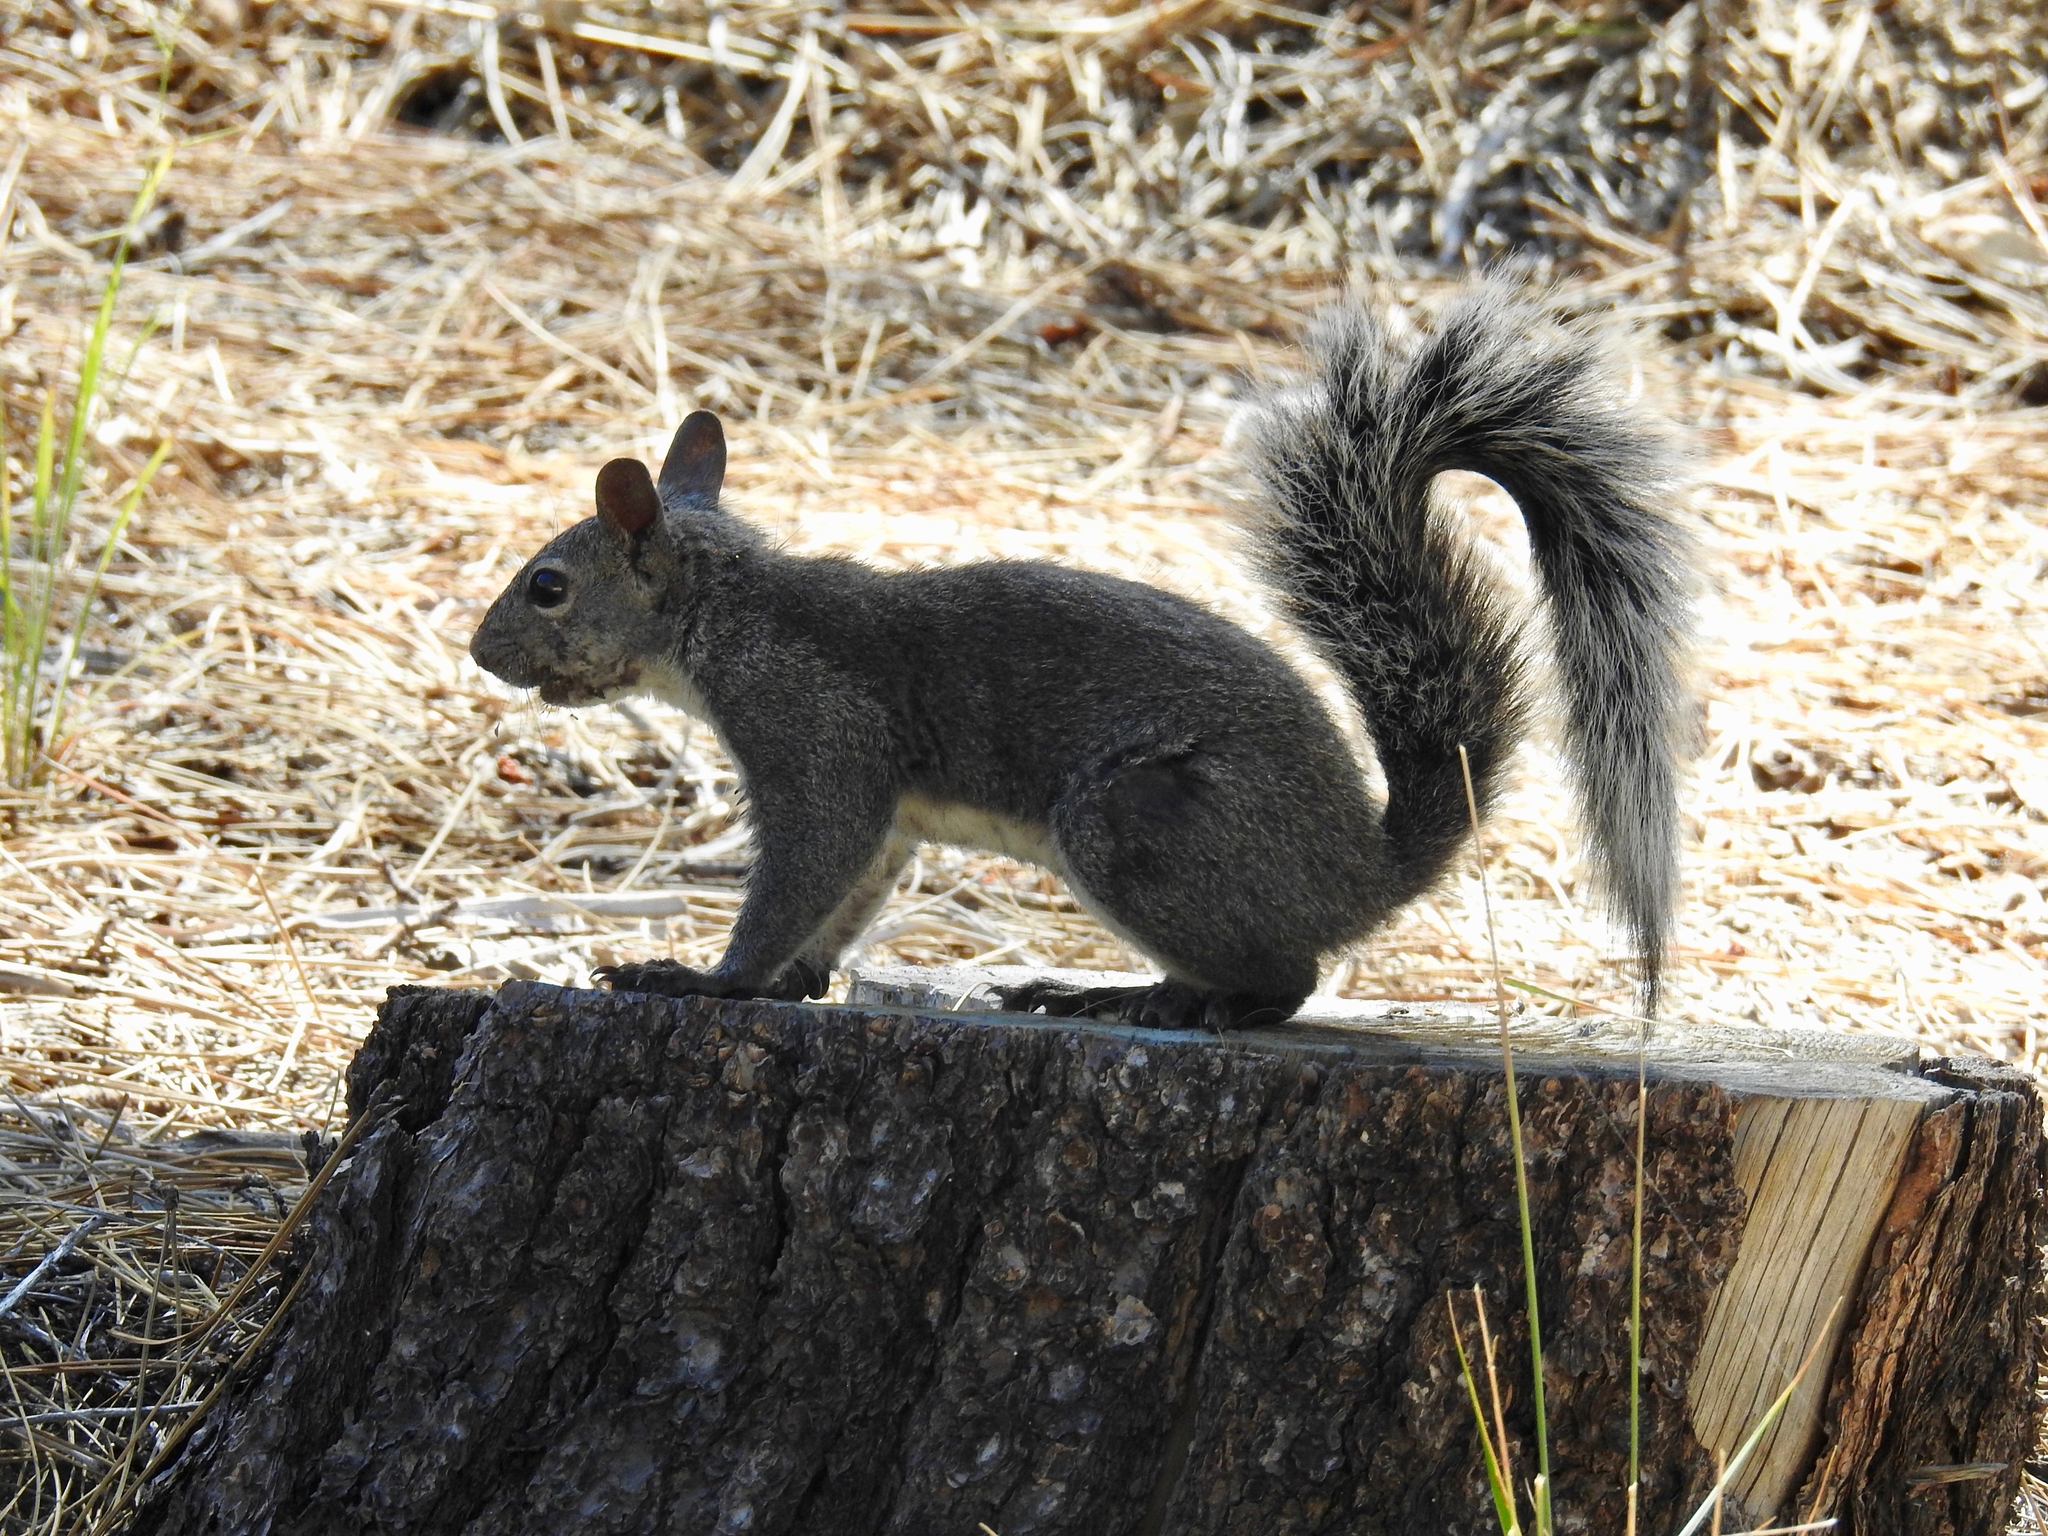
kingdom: Animalia
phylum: Chordata
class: Mammalia
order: Rodentia
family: Sciuridae
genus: Sciurus
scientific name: Sciurus griseus
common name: Western gray squirrel
